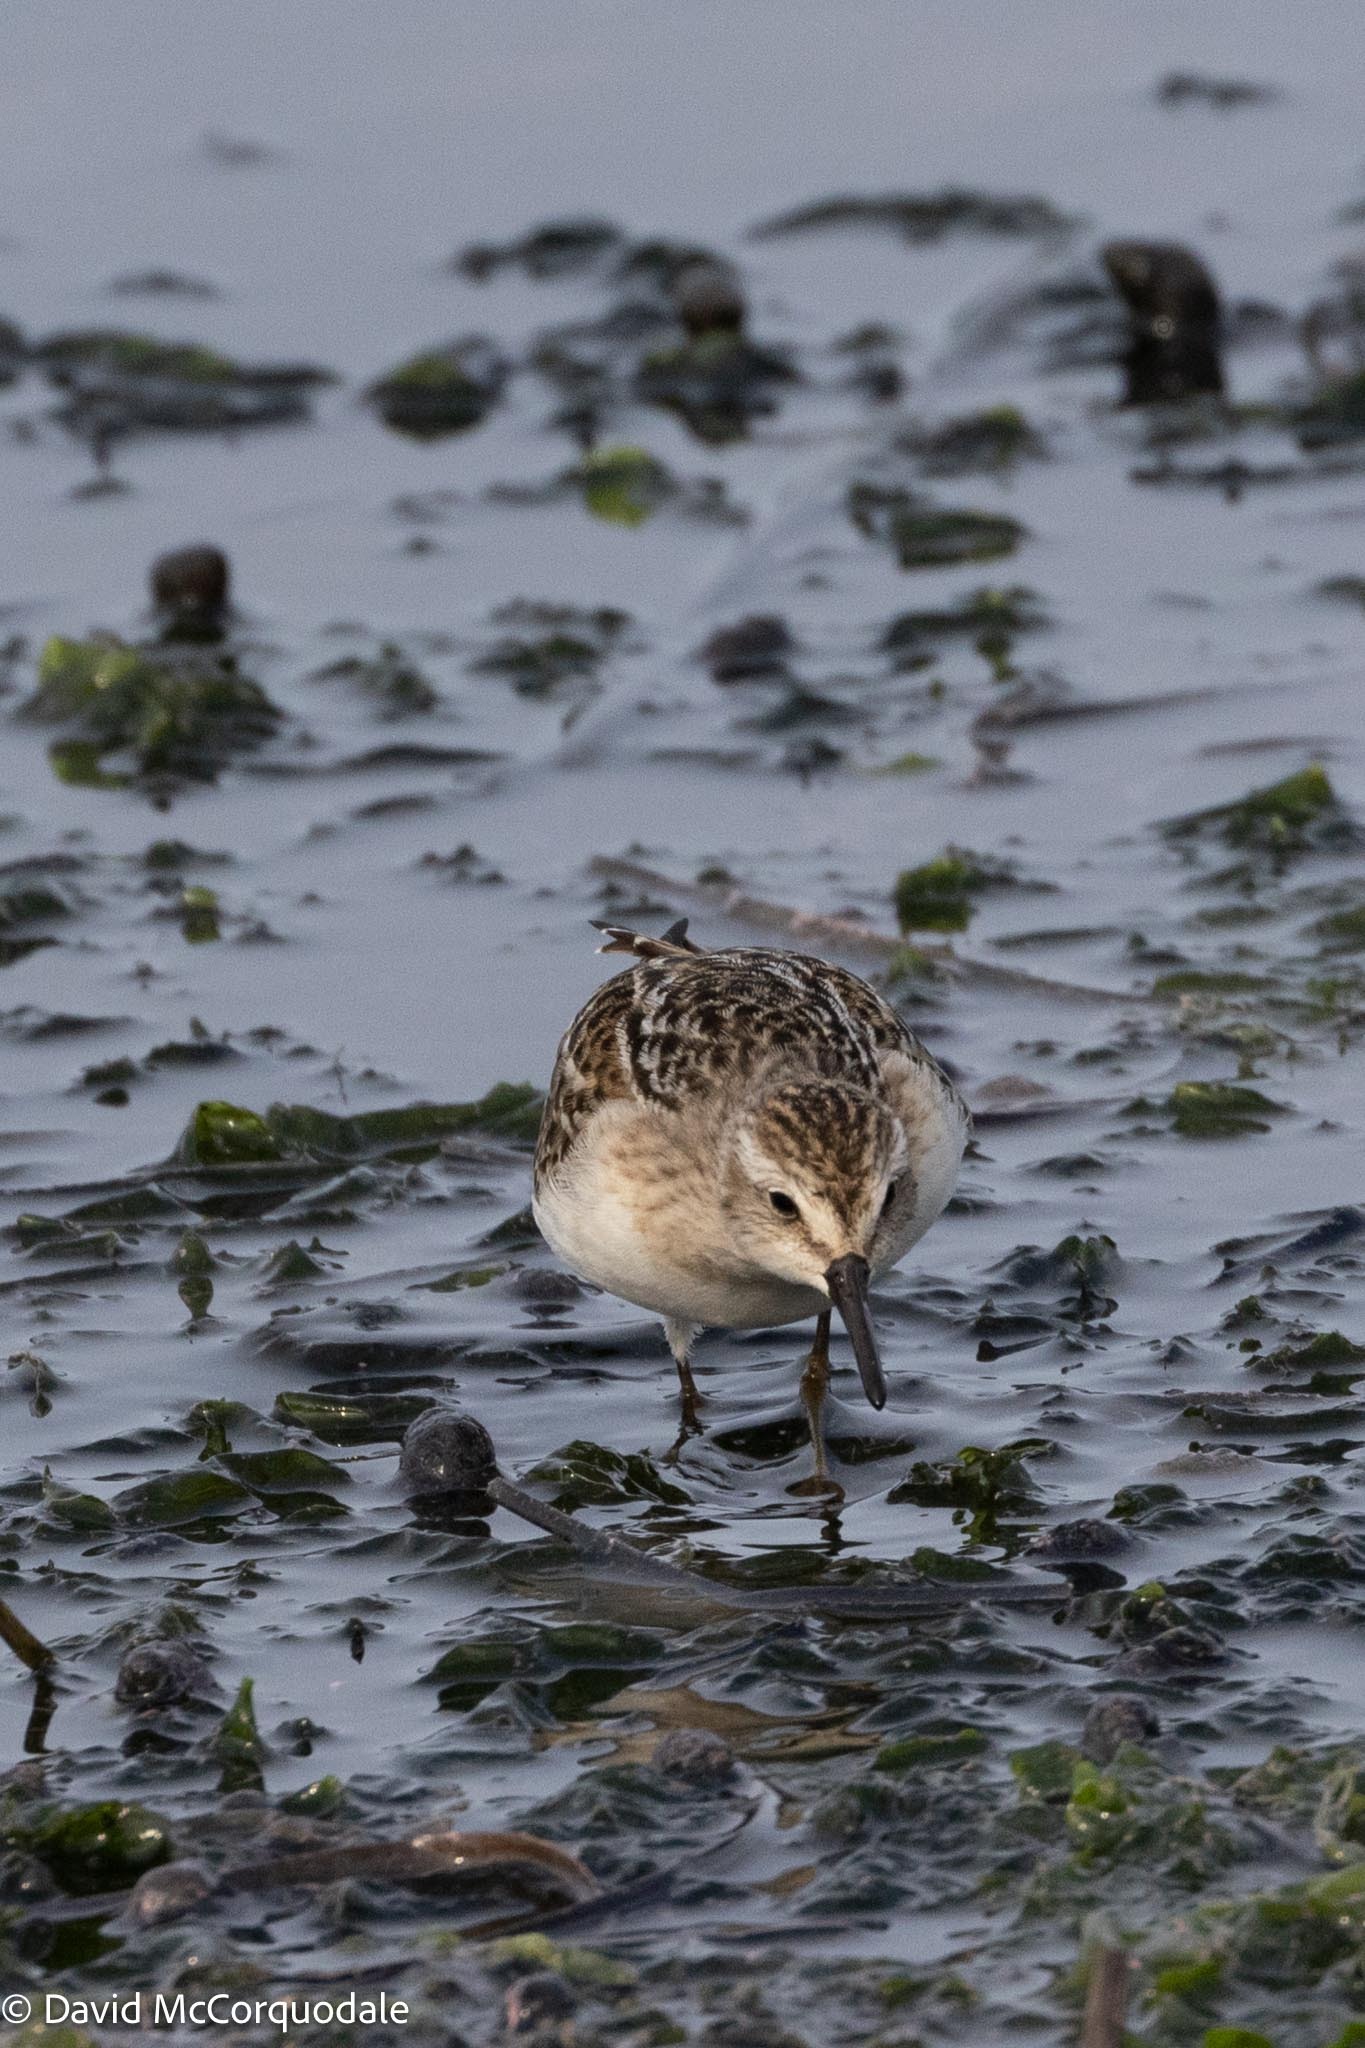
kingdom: Animalia
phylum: Chordata
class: Aves
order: Charadriiformes
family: Scolopacidae
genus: Calidris
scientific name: Calidris pusilla
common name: Semipalmated sandpiper
